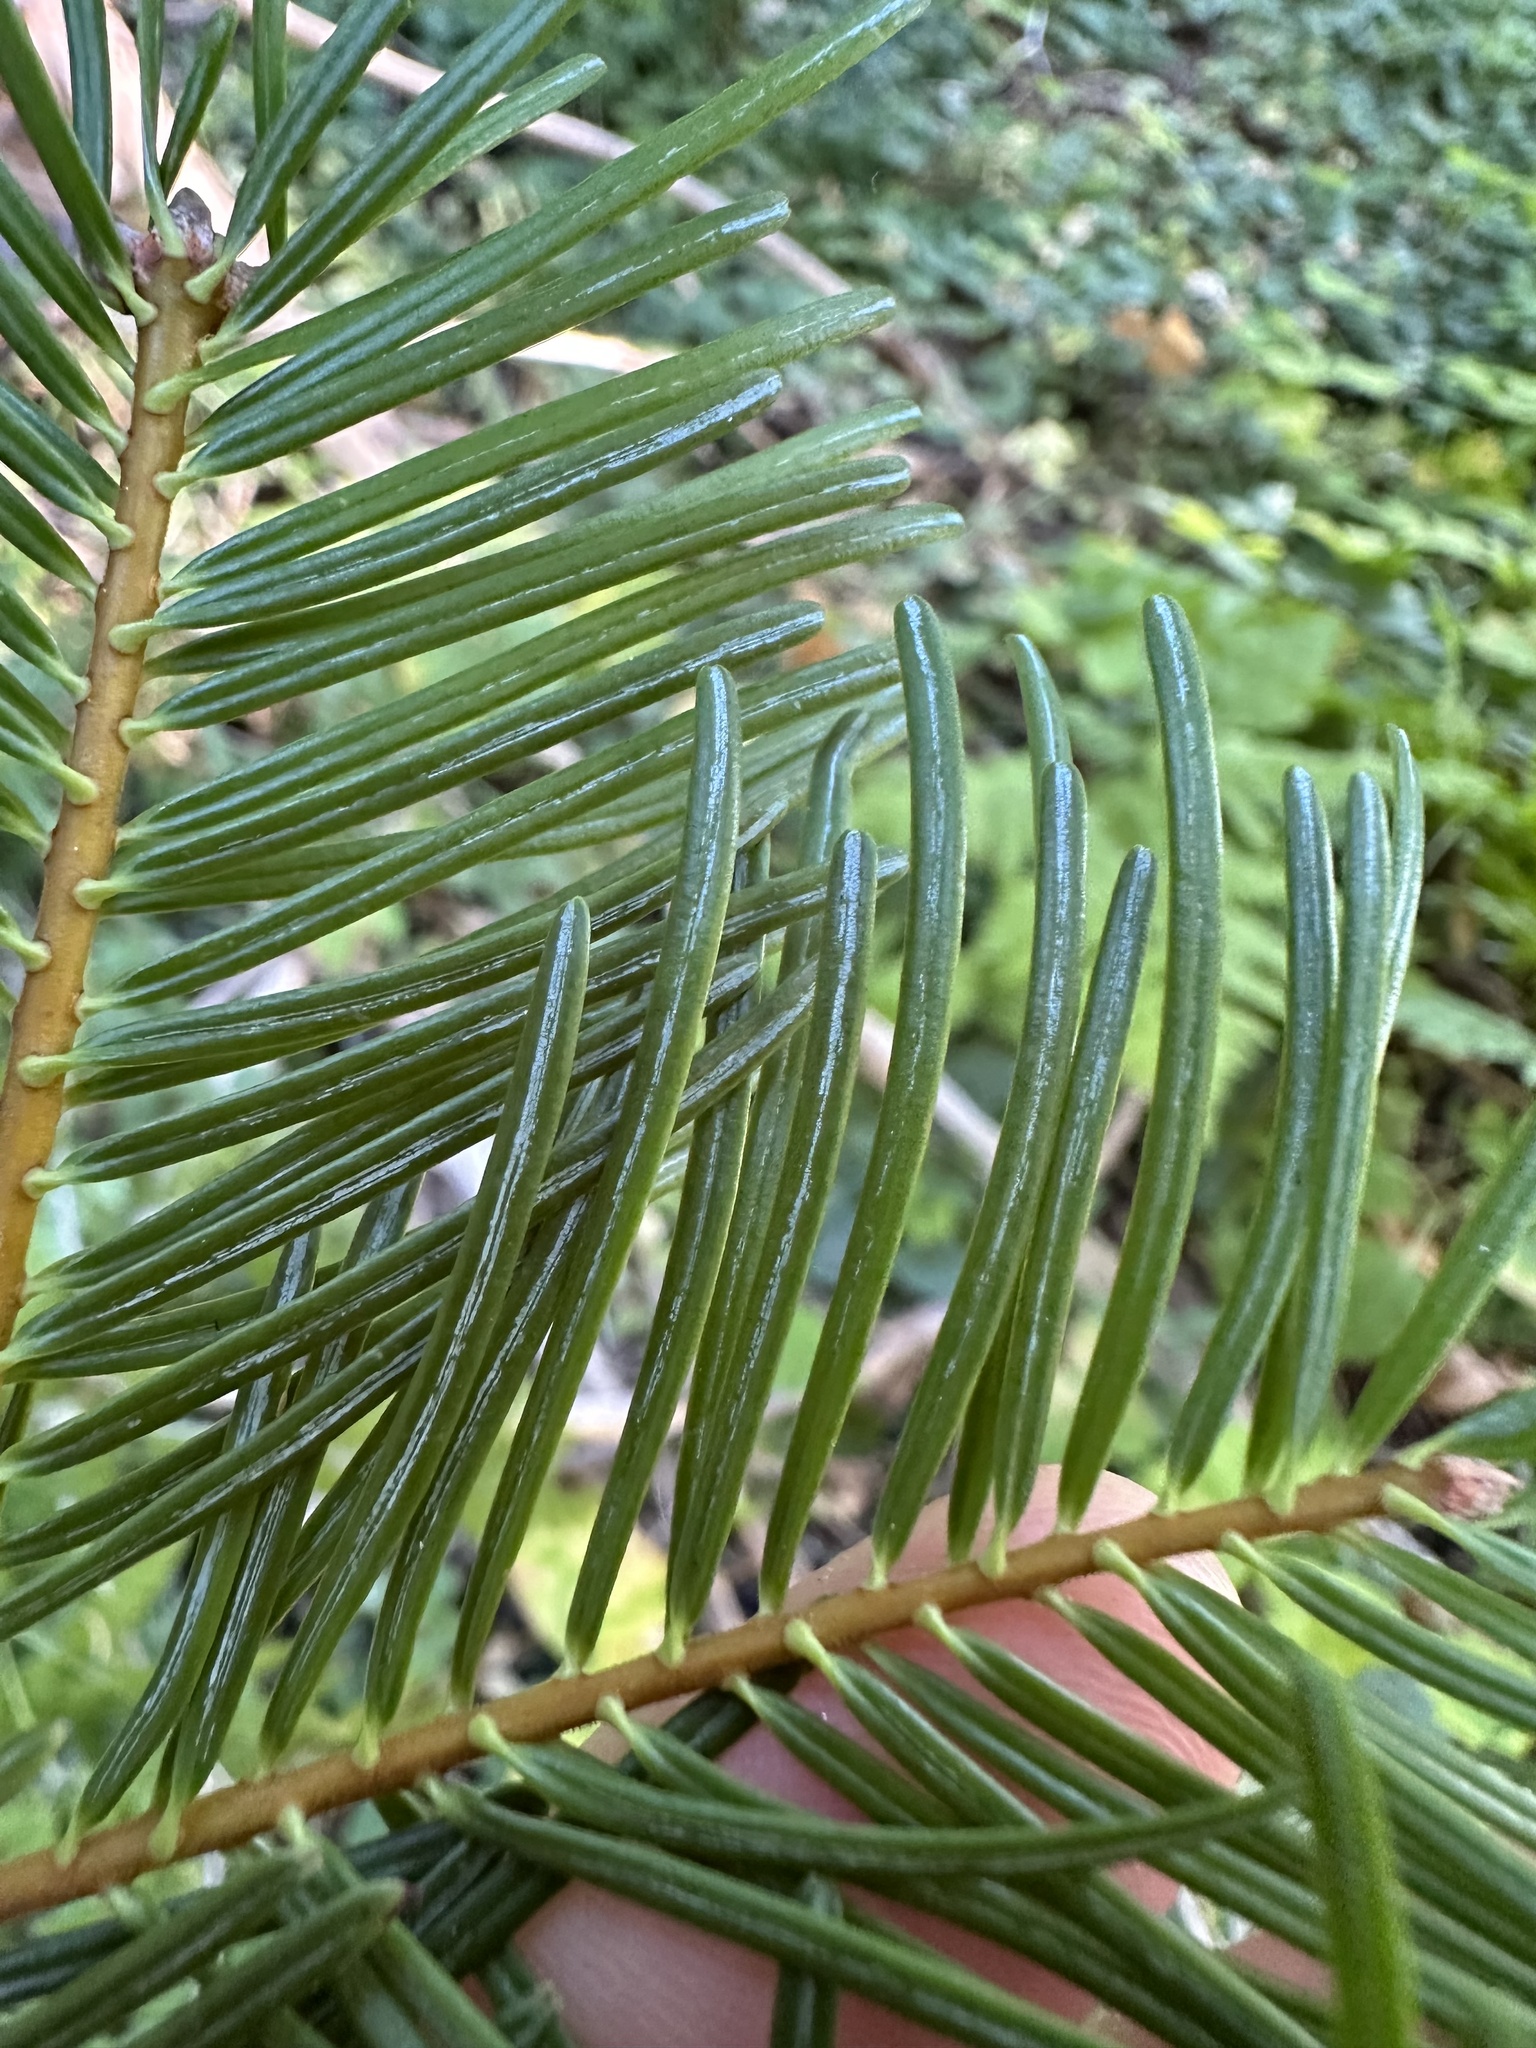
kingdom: Plantae
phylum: Tracheophyta
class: Pinopsida
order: Pinales
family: Pinaceae
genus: Abies
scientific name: Abies concolor
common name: Colorado fir
